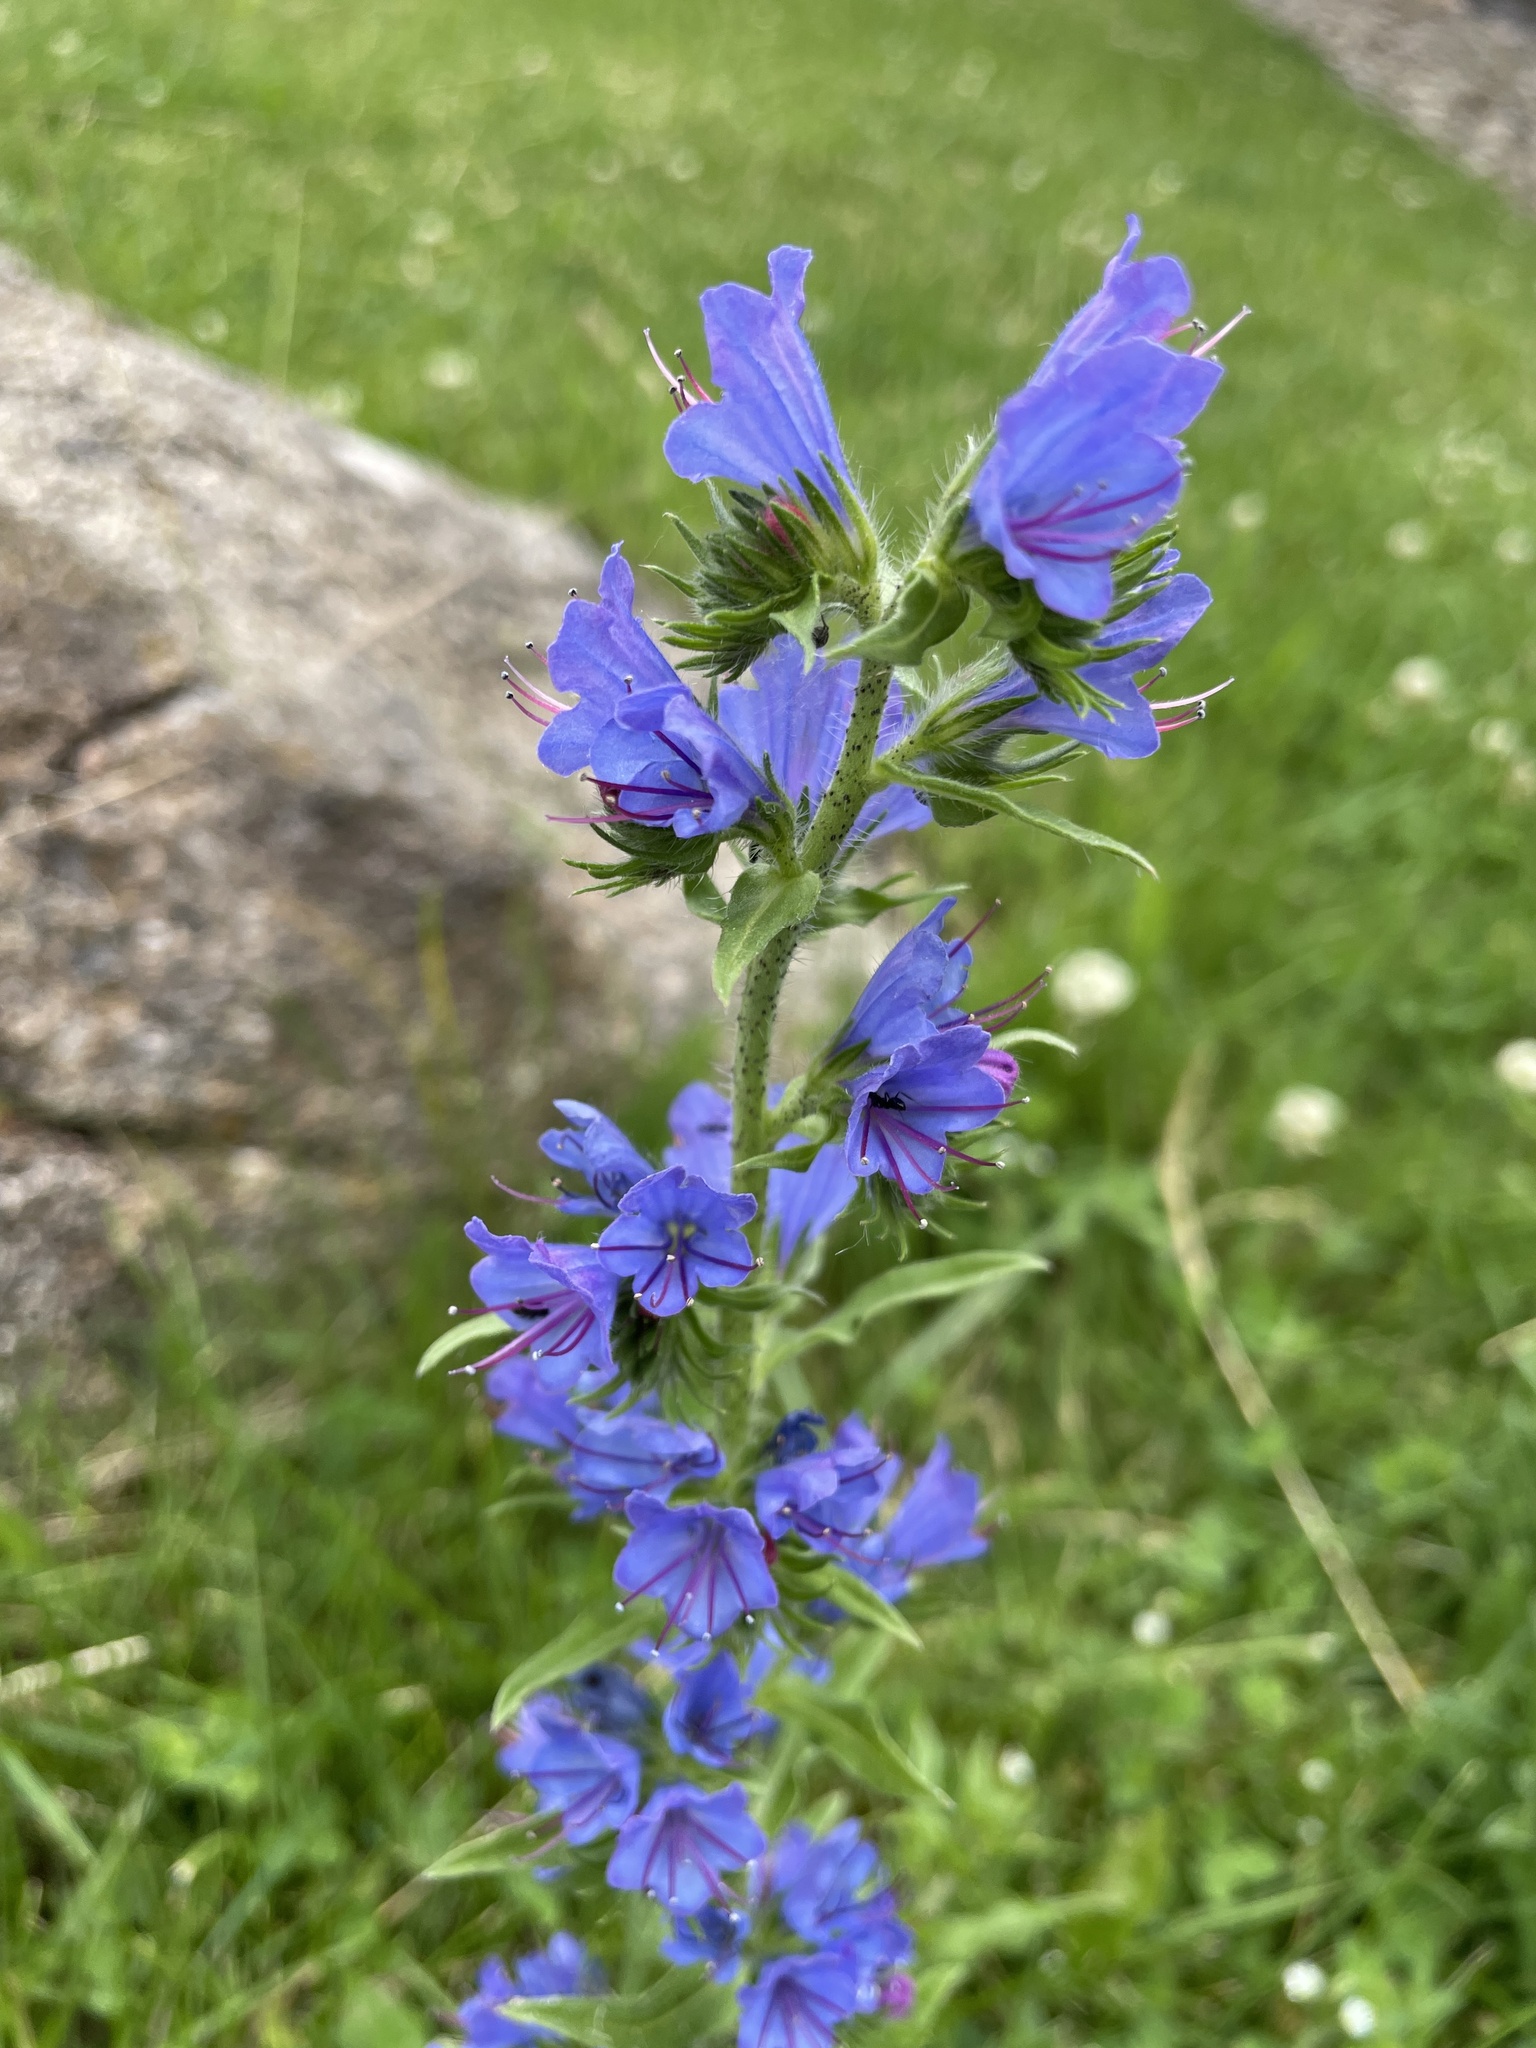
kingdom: Plantae
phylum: Tracheophyta
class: Magnoliopsida
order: Boraginales
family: Boraginaceae
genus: Echium
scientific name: Echium vulgare
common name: Common viper's bugloss
